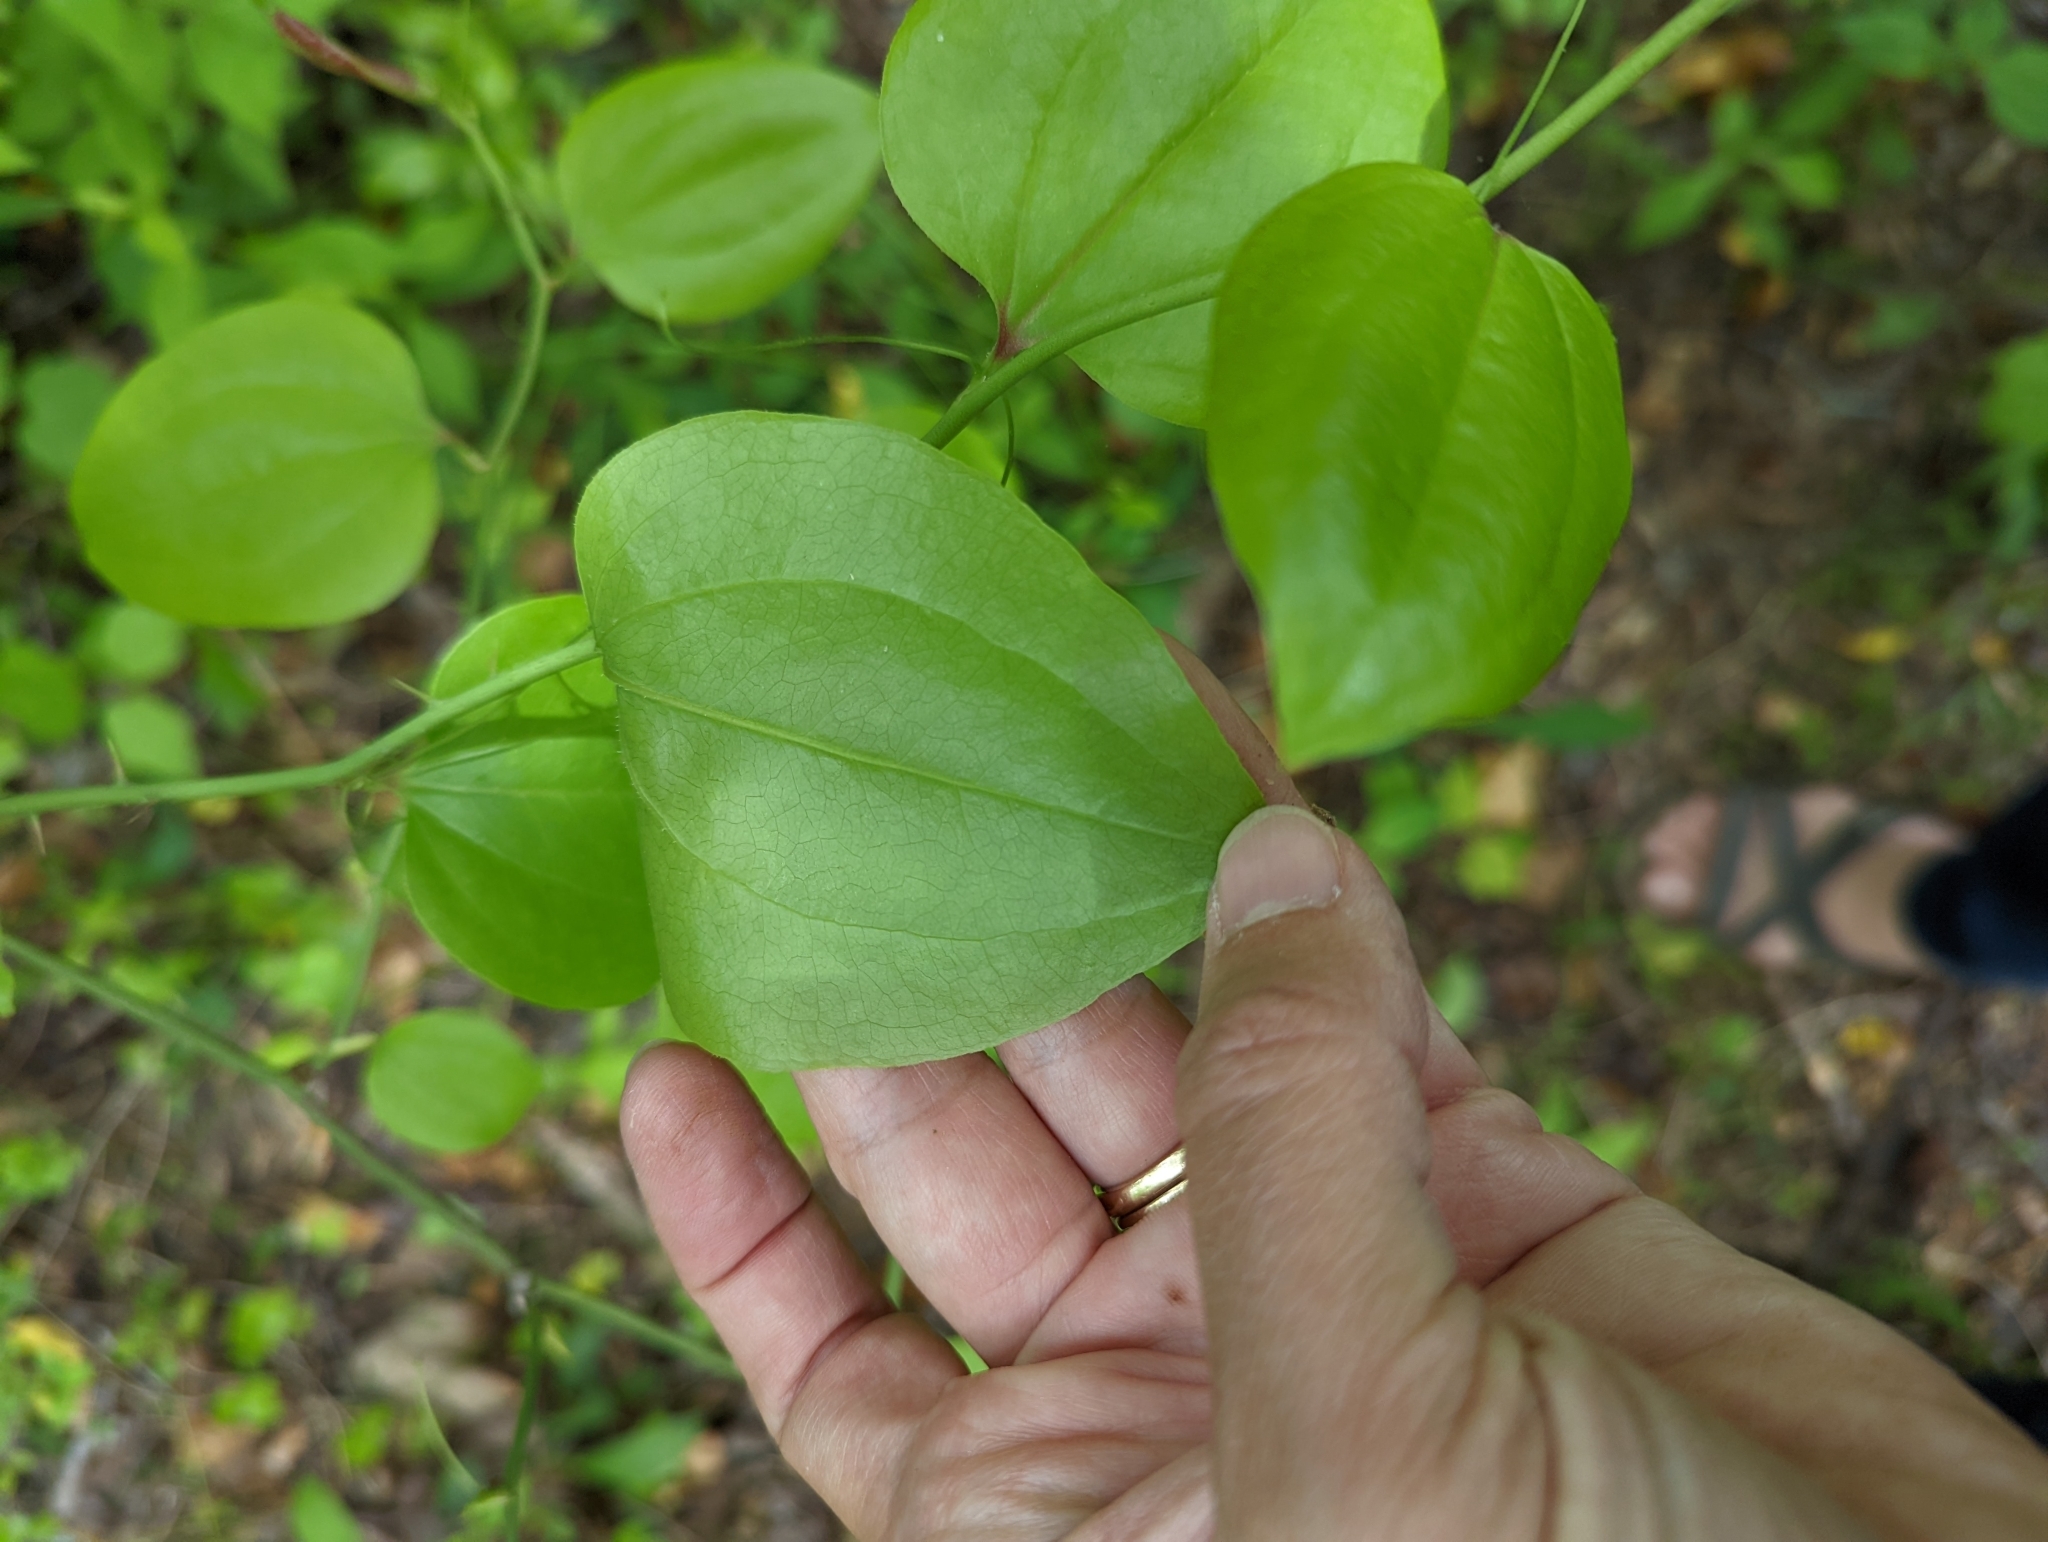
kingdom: Plantae
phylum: Tracheophyta
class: Liliopsida
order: Liliales
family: Smilacaceae
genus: Smilax
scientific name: Smilax rotundifolia
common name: Bullbriar
